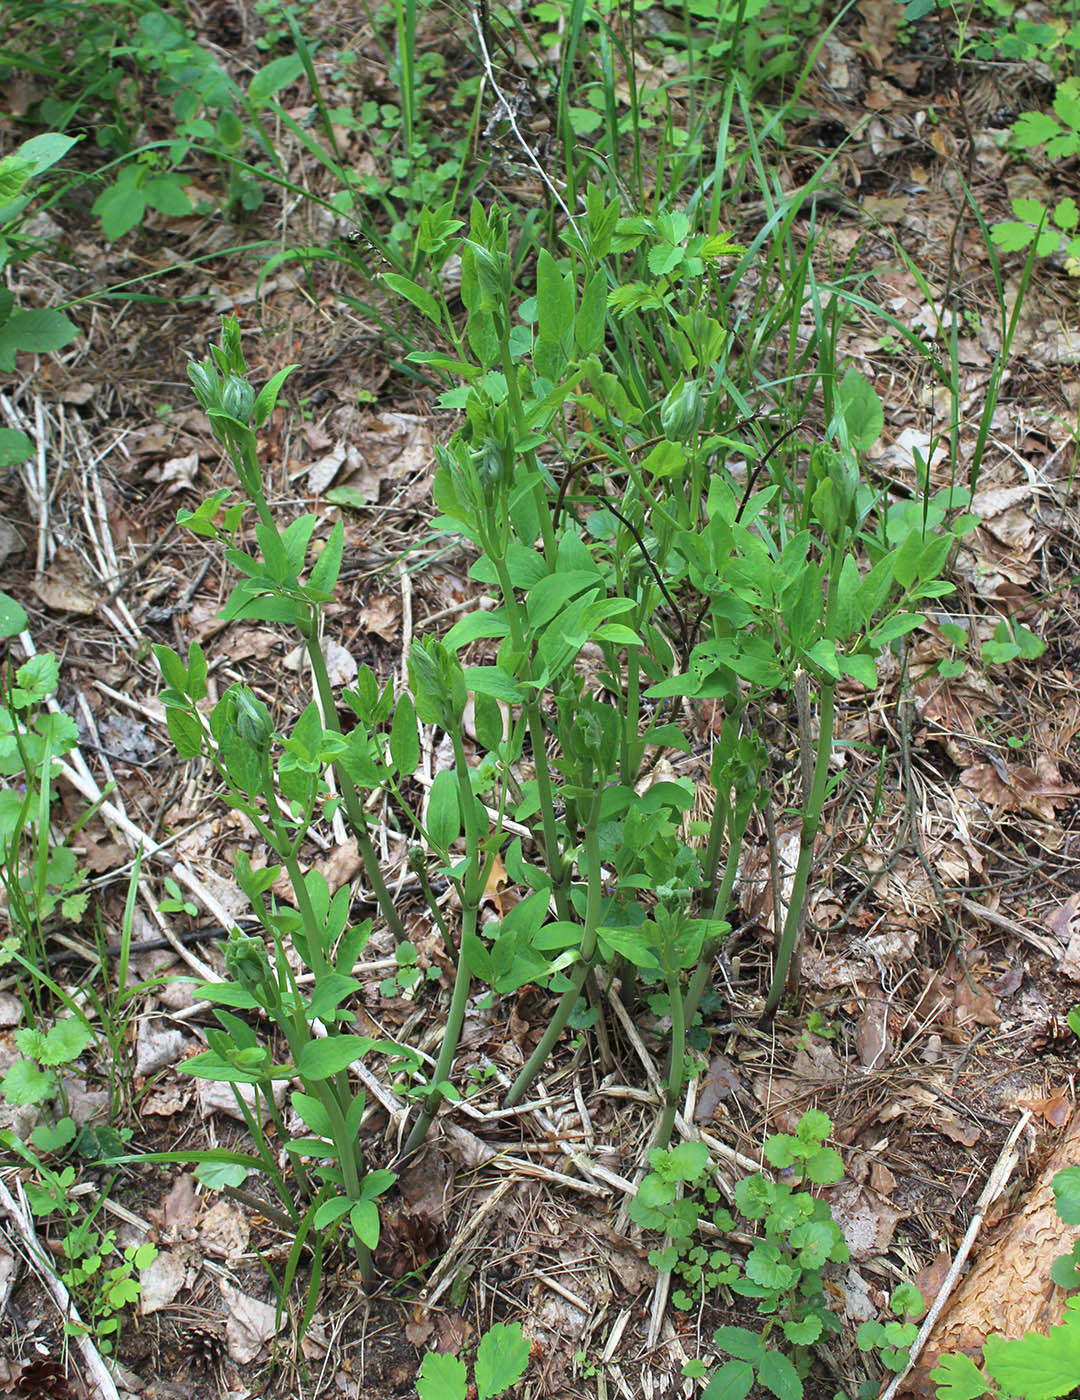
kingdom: Plantae
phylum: Tracheophyta
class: Magnoliopsida
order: Ranunculales
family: Ranunculaceae
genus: Clematis
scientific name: Clematis recta
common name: Ground clematis
